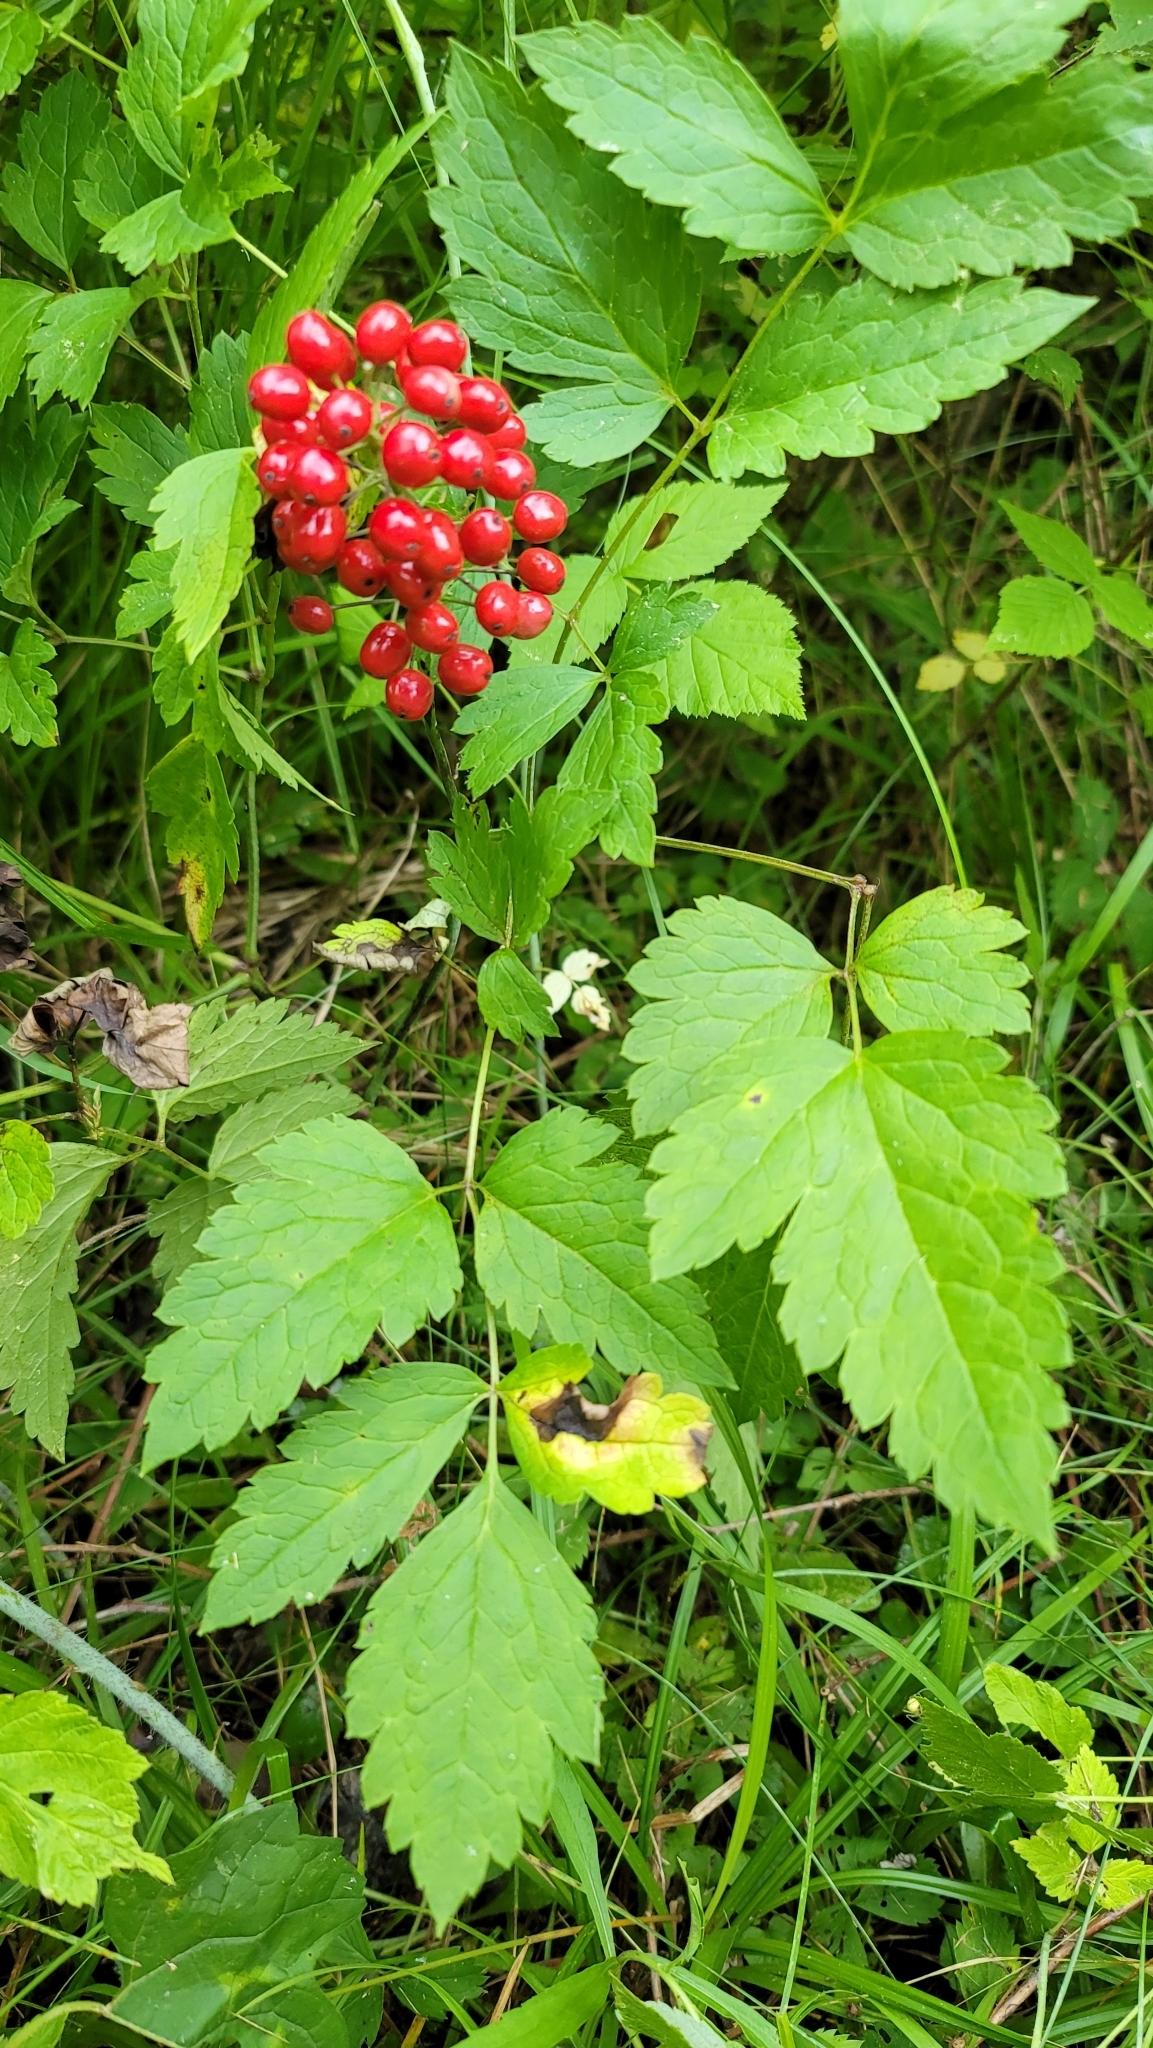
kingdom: Plantae
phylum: Tracheophyta
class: Magnoliopsida
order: Ranunculales
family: Ranunculaceae
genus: Actaea
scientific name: Actaea rubra
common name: Red baneberry
